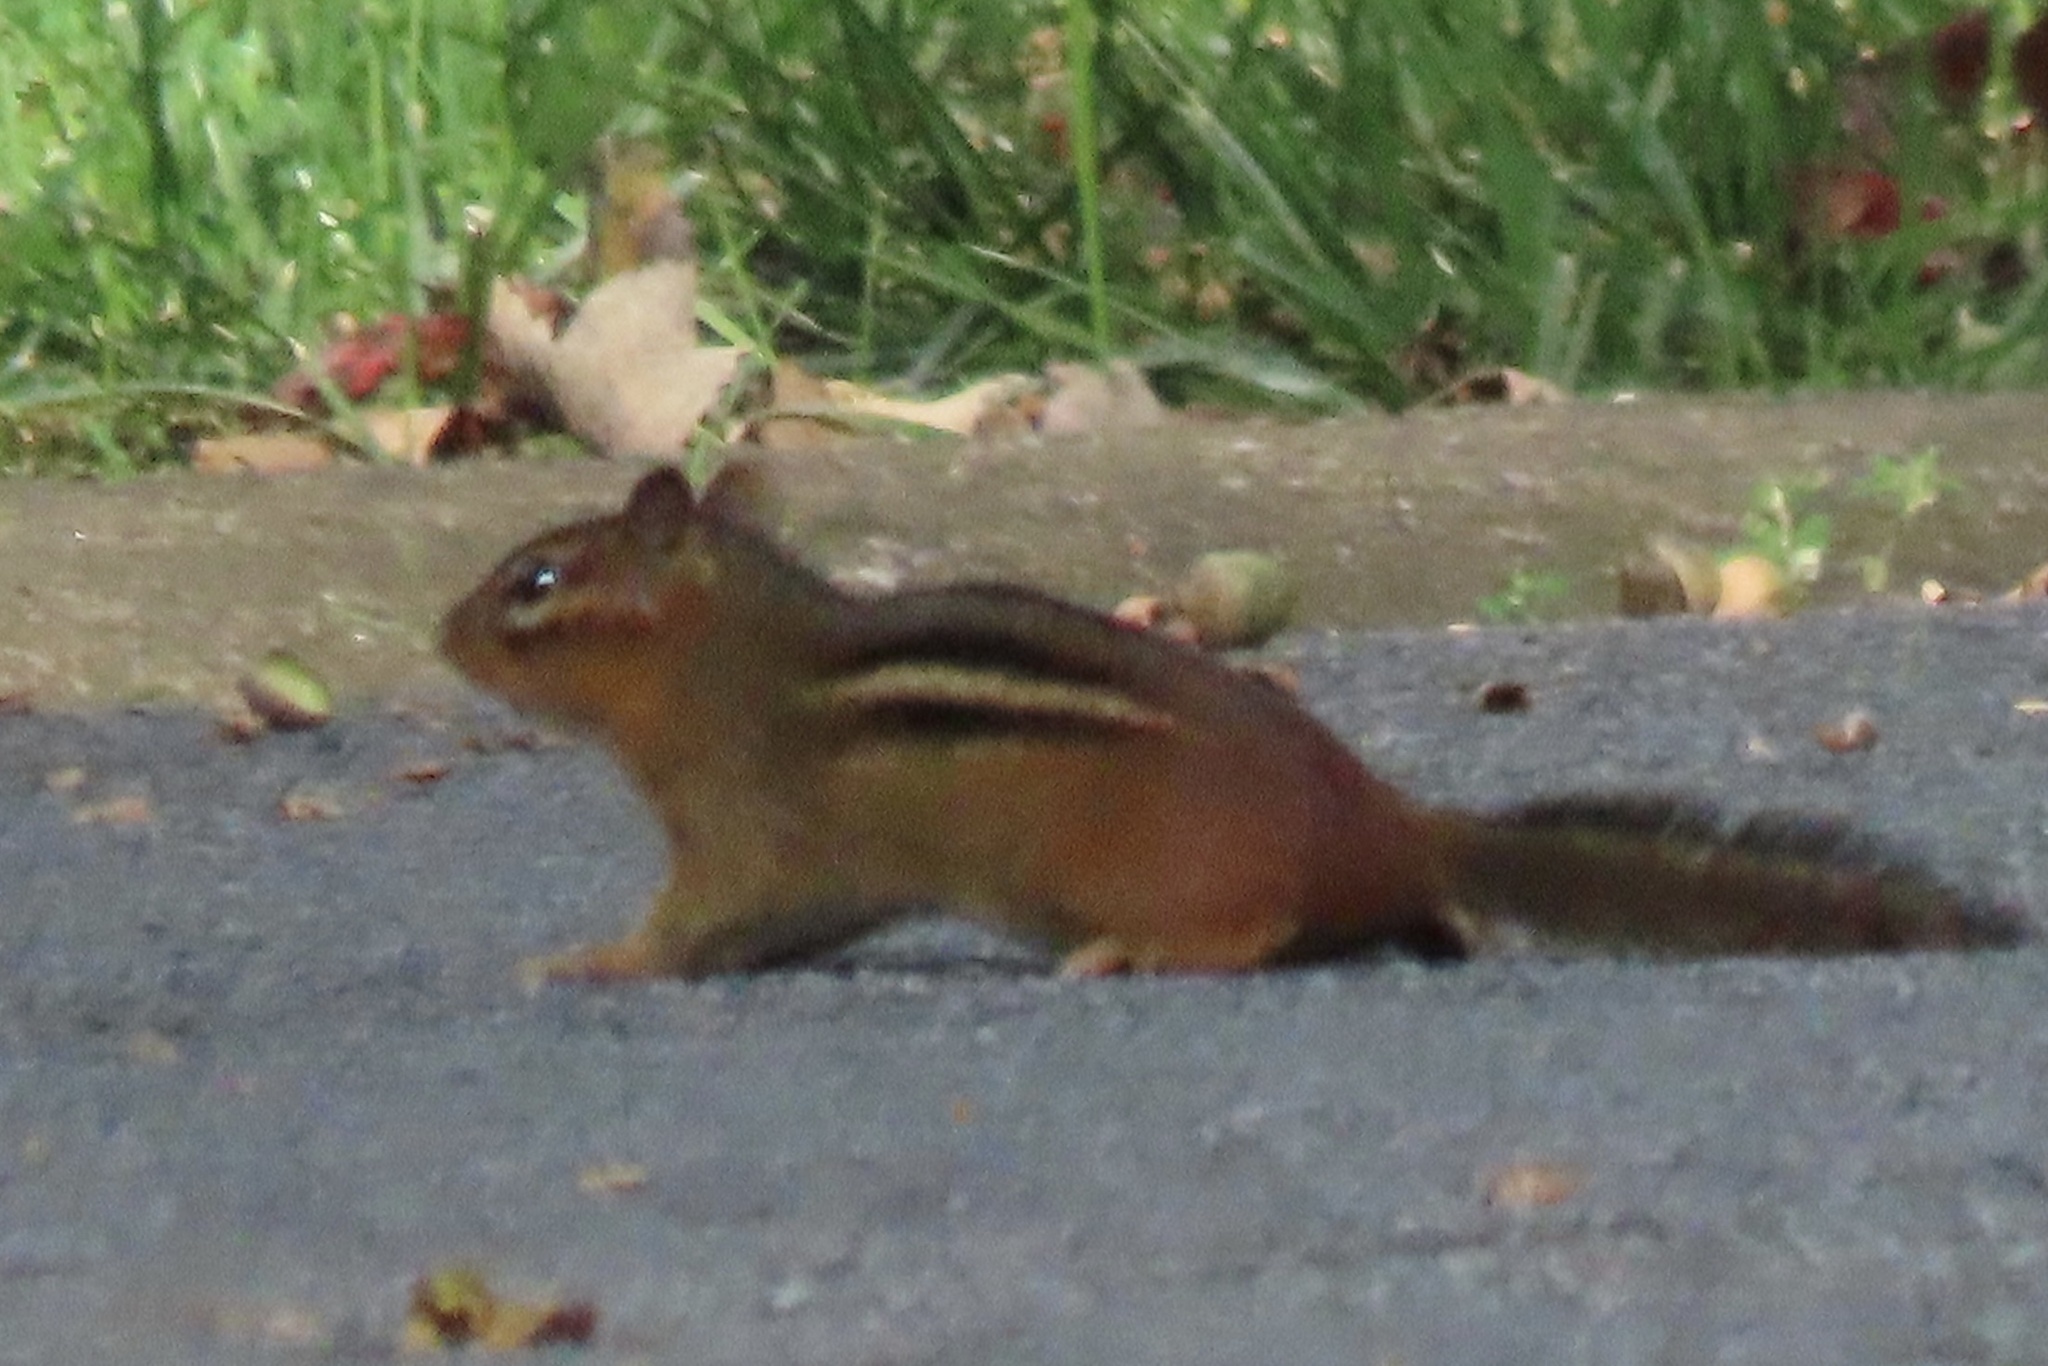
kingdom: Animalia
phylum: Chordata
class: Mammalia
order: Rodentia
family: Sciuridae
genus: Tamias
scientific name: Tamias striatus
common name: Eastern chipmunk
